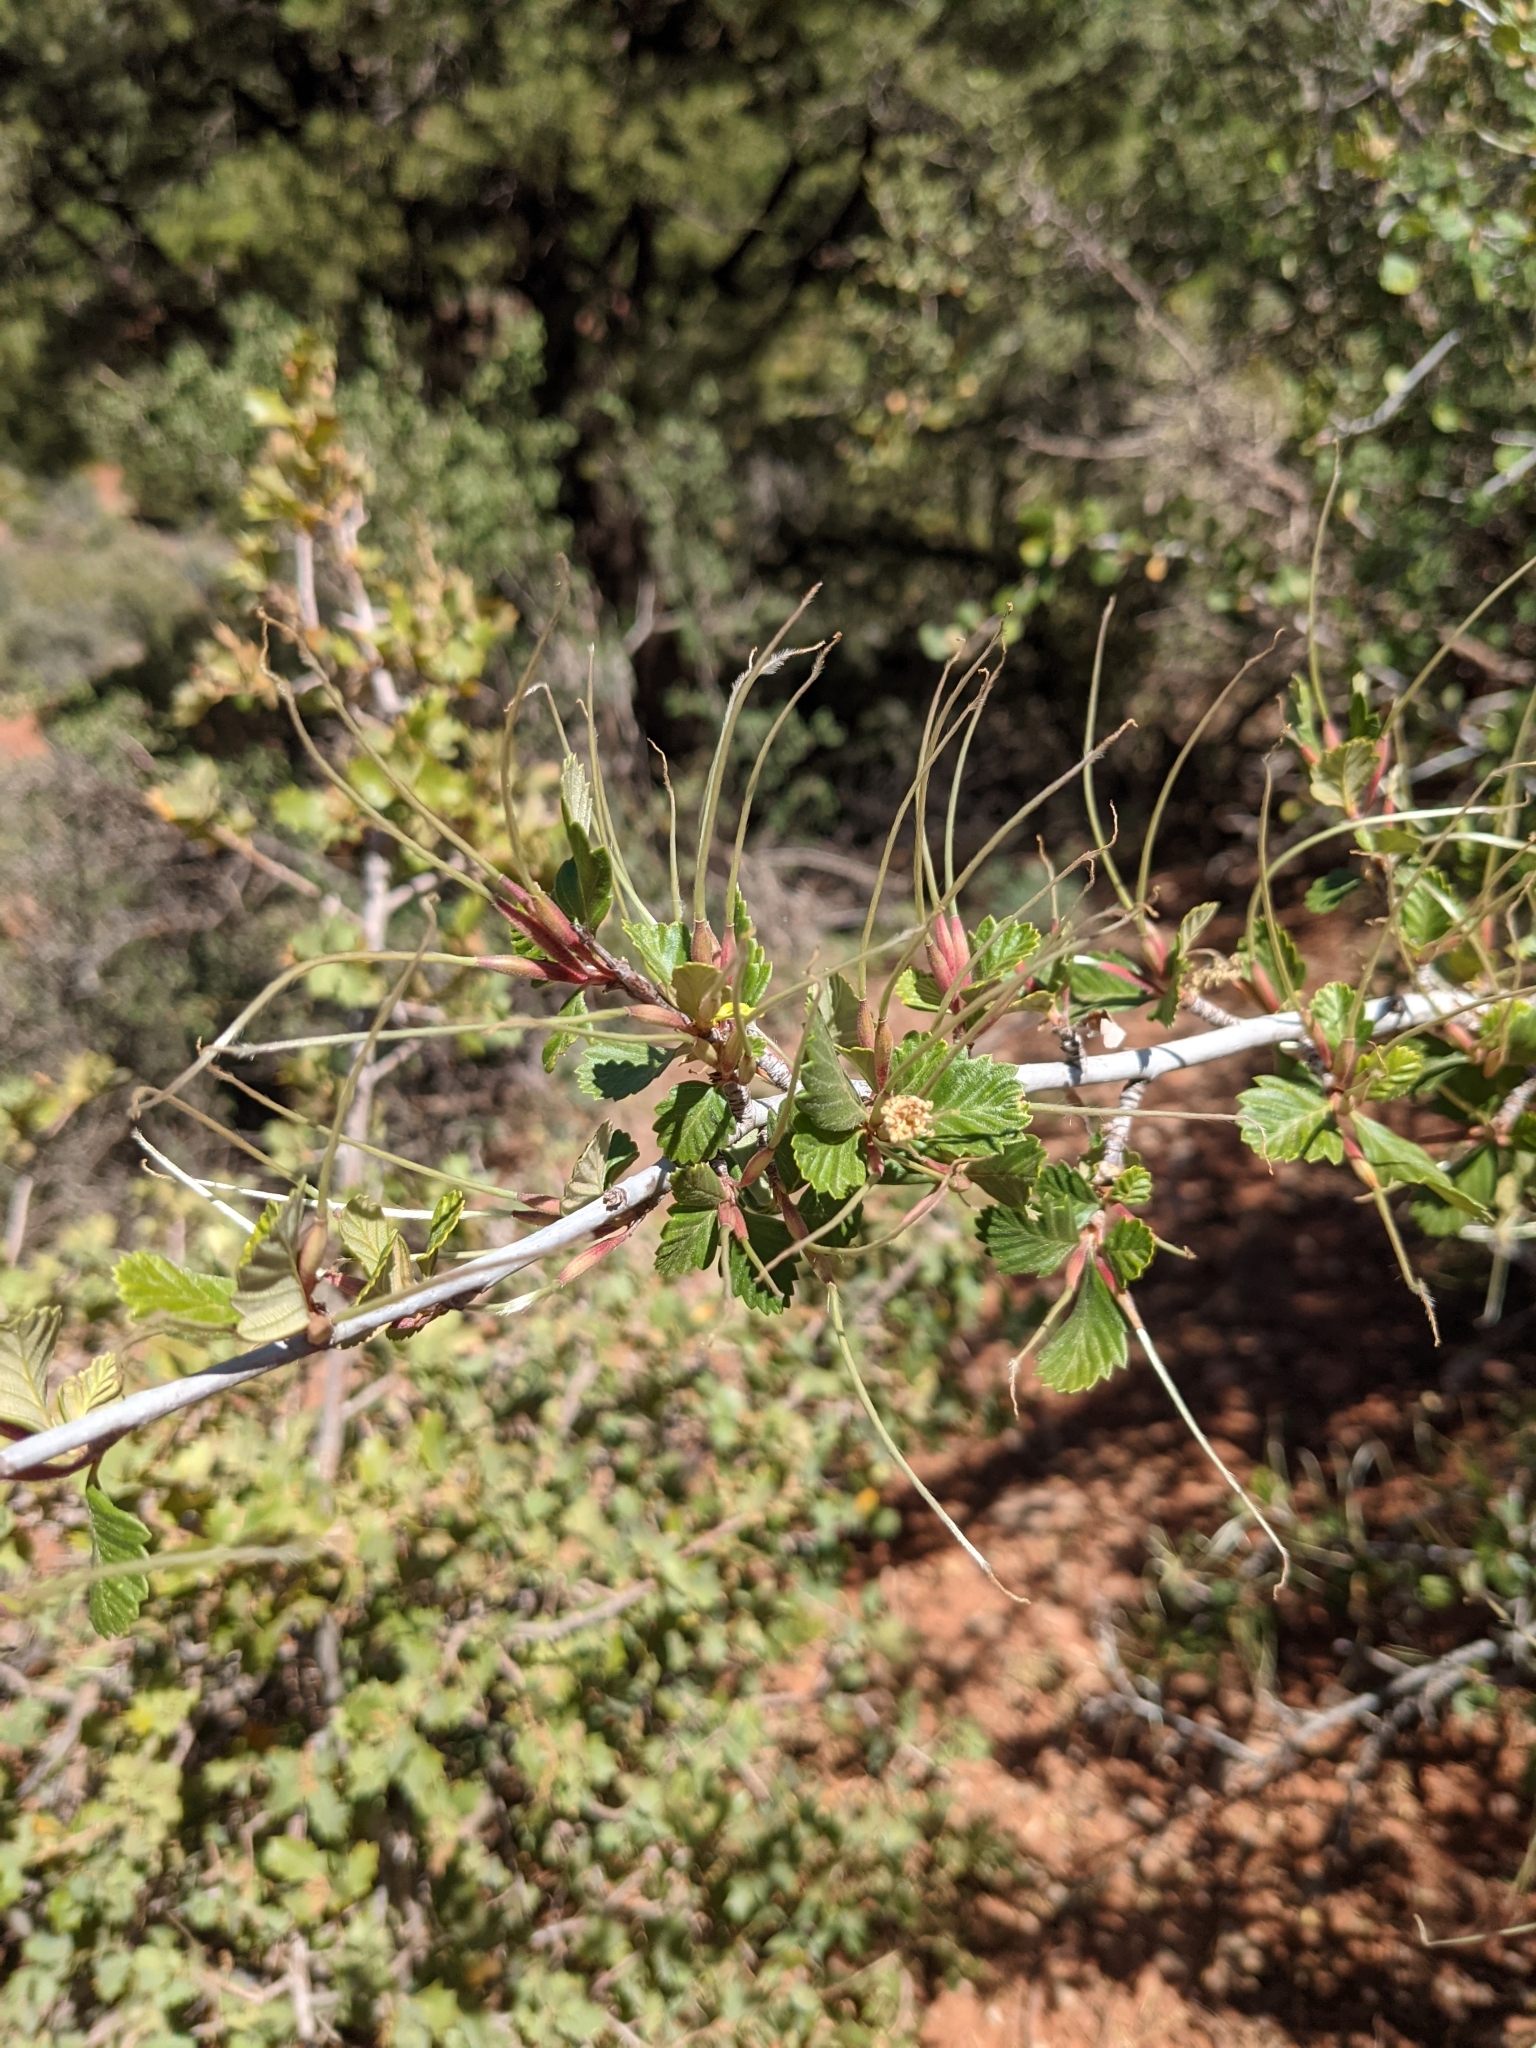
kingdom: Plantae
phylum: Tracheophyta
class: Magnoliopsida
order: Rosales
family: Rosaceae
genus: Cercocarpus
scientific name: Cercocarpus montanus
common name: Alder-leaf cercocarpus
